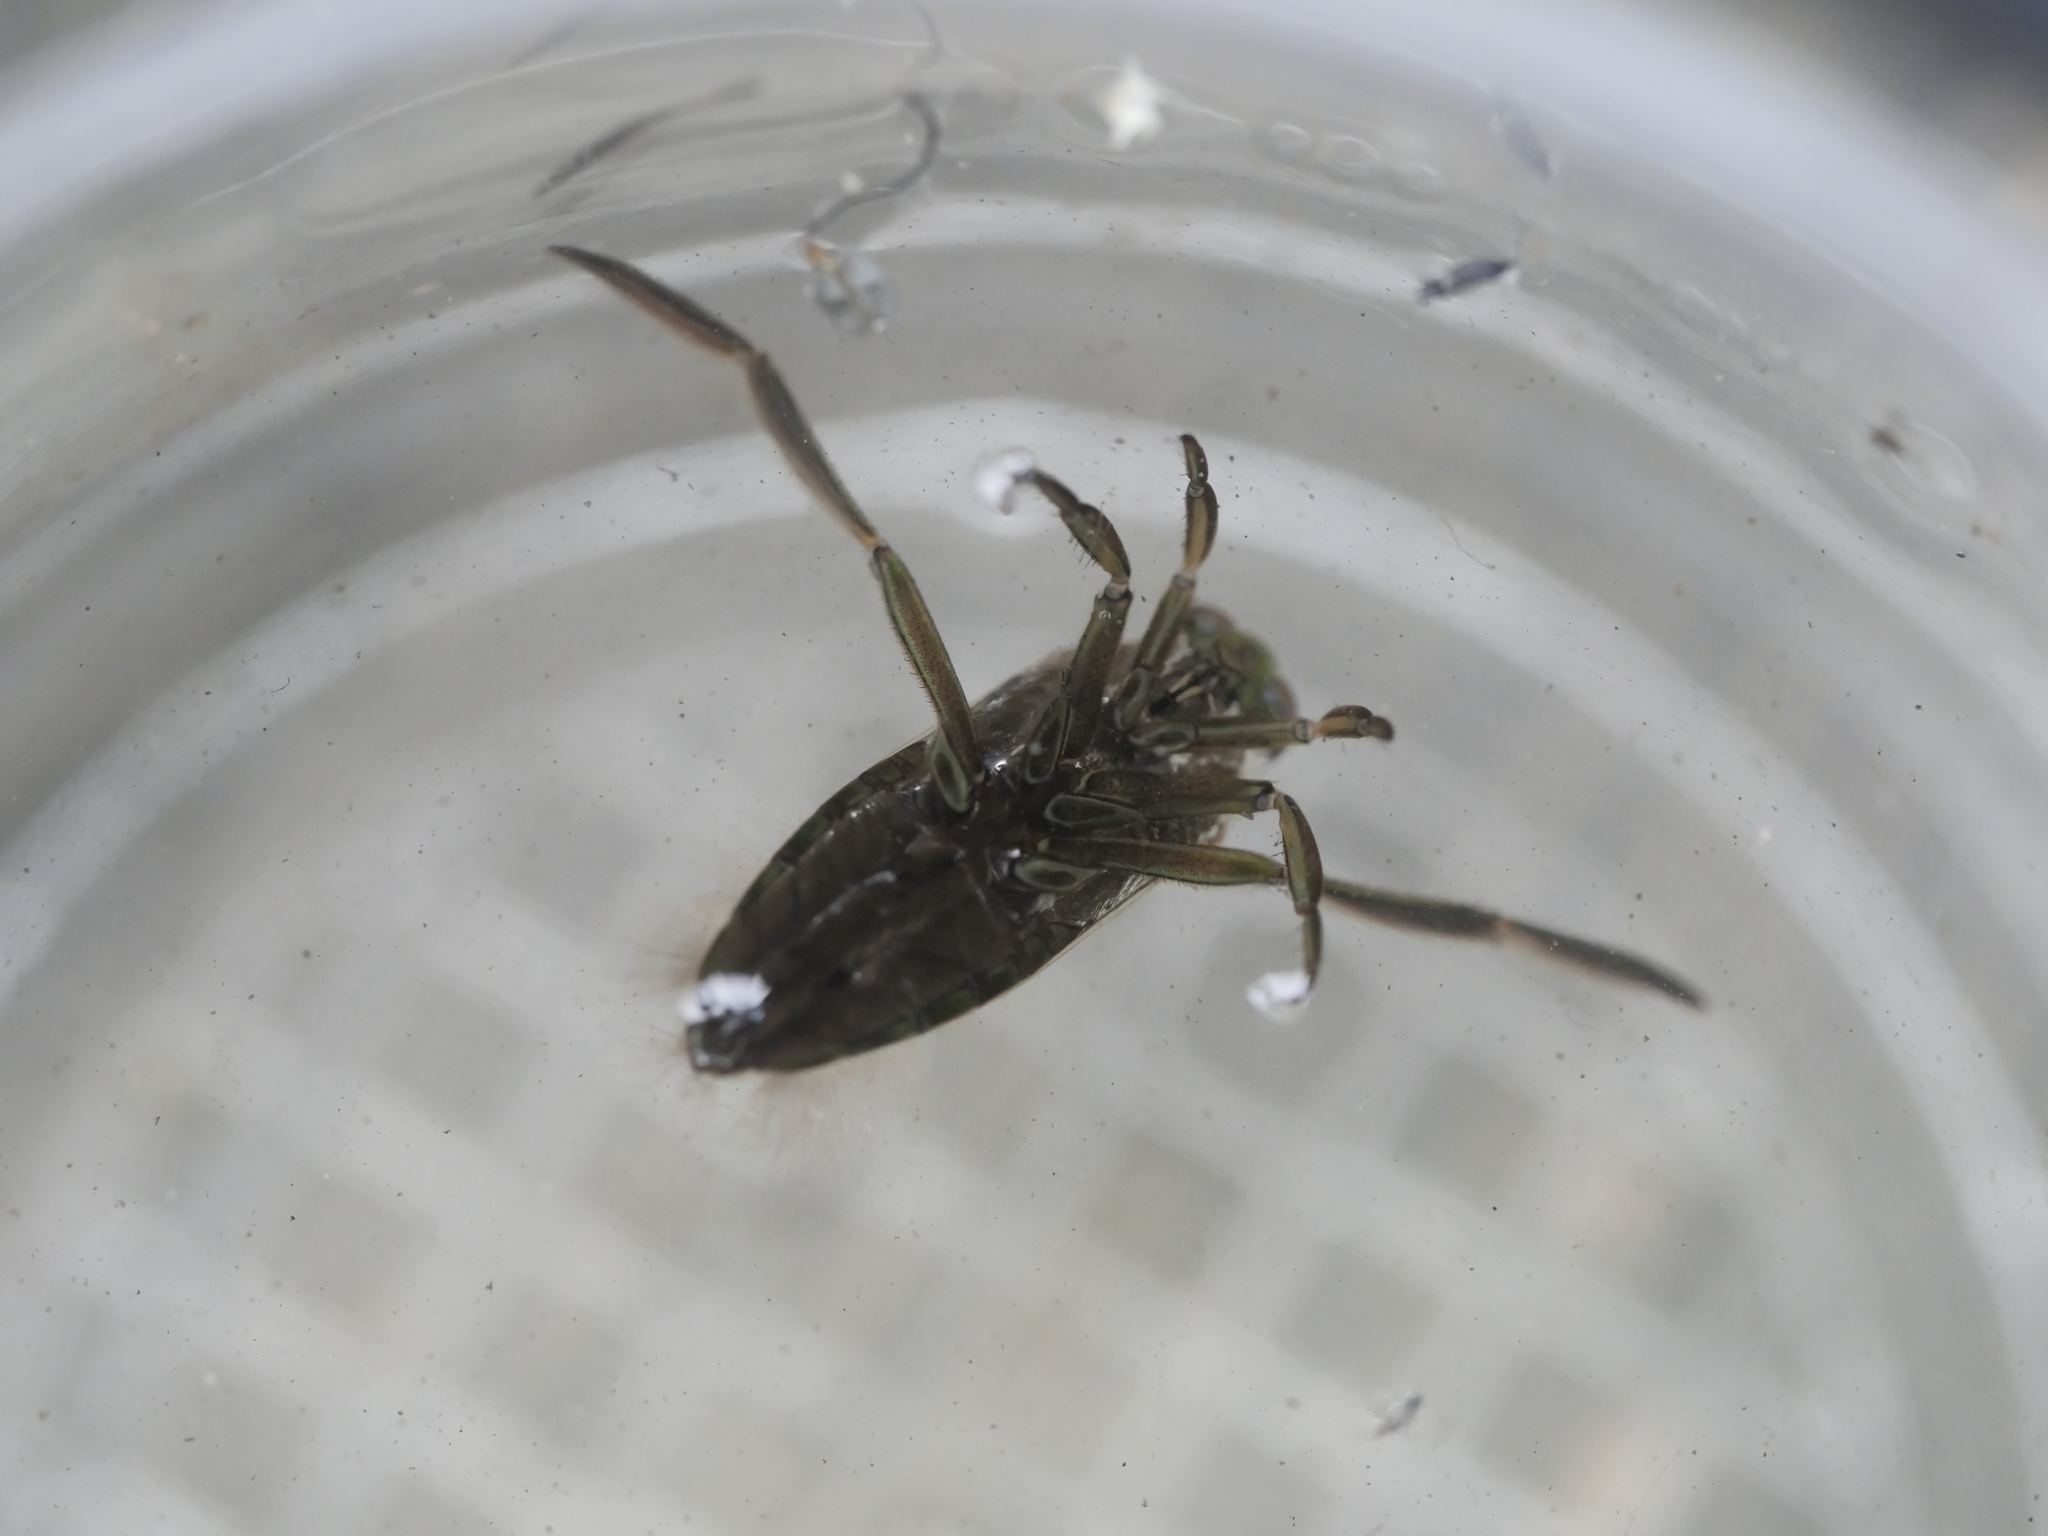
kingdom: Animalia
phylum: Arthropoda
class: Insecta
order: Hemiptera
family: Notonectidae
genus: Notonecta
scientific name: Notonecta
